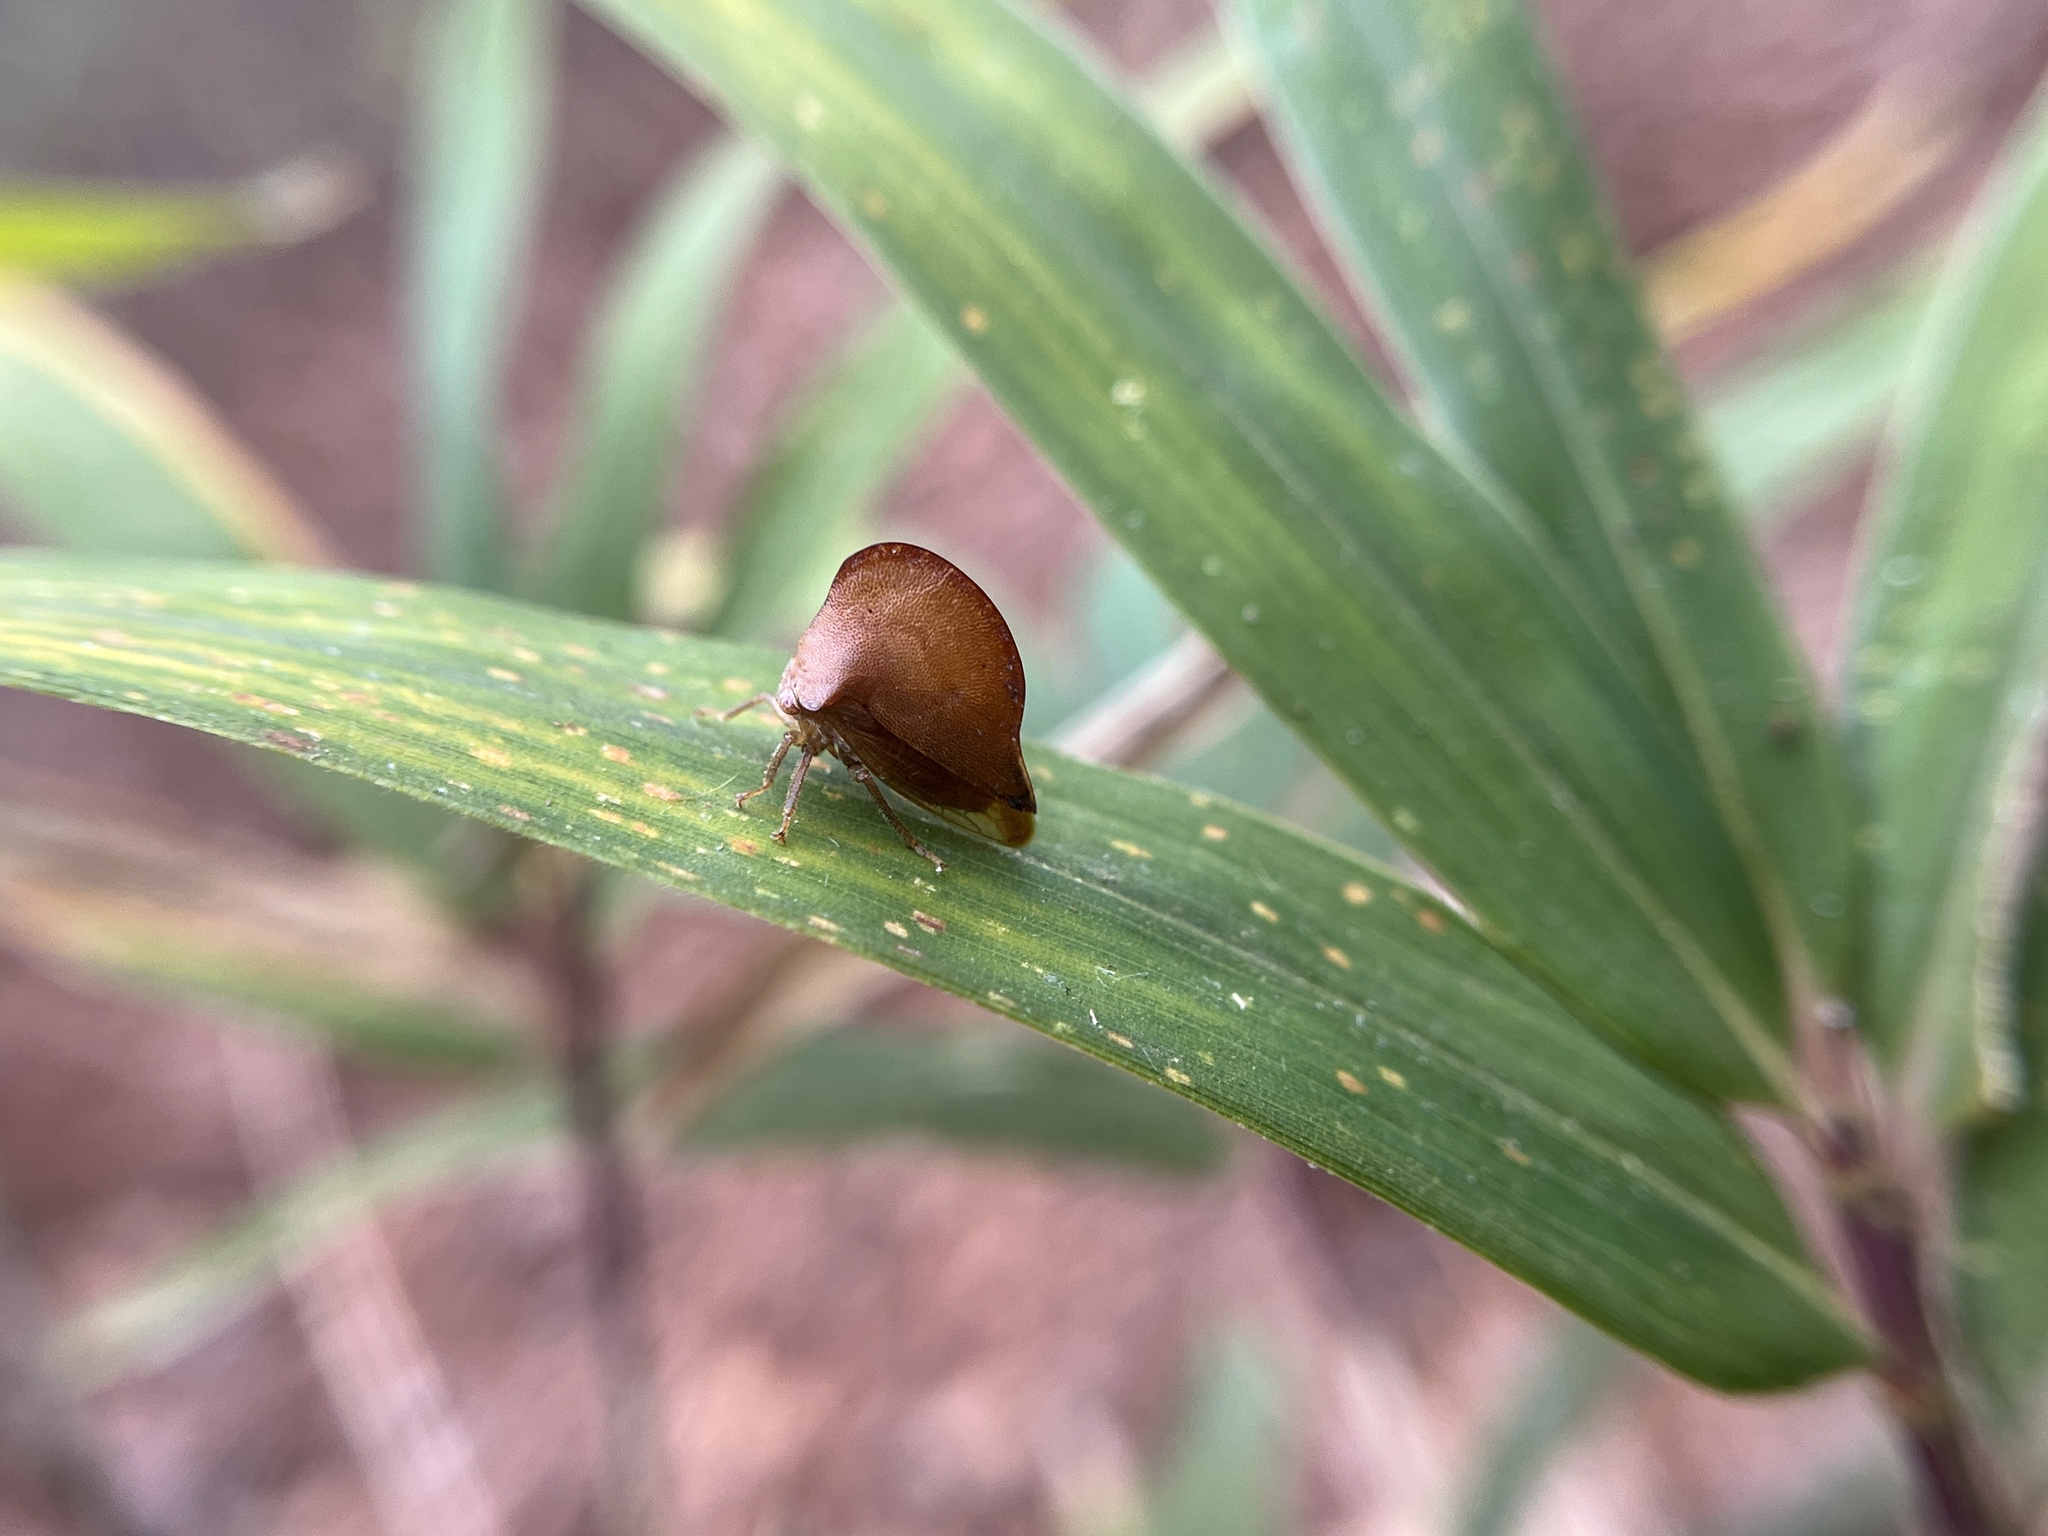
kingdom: Animalia
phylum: Arthropoda
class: Insecta
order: Hemiptera
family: Membracidae
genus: Telamona
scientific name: Telamona extrema
